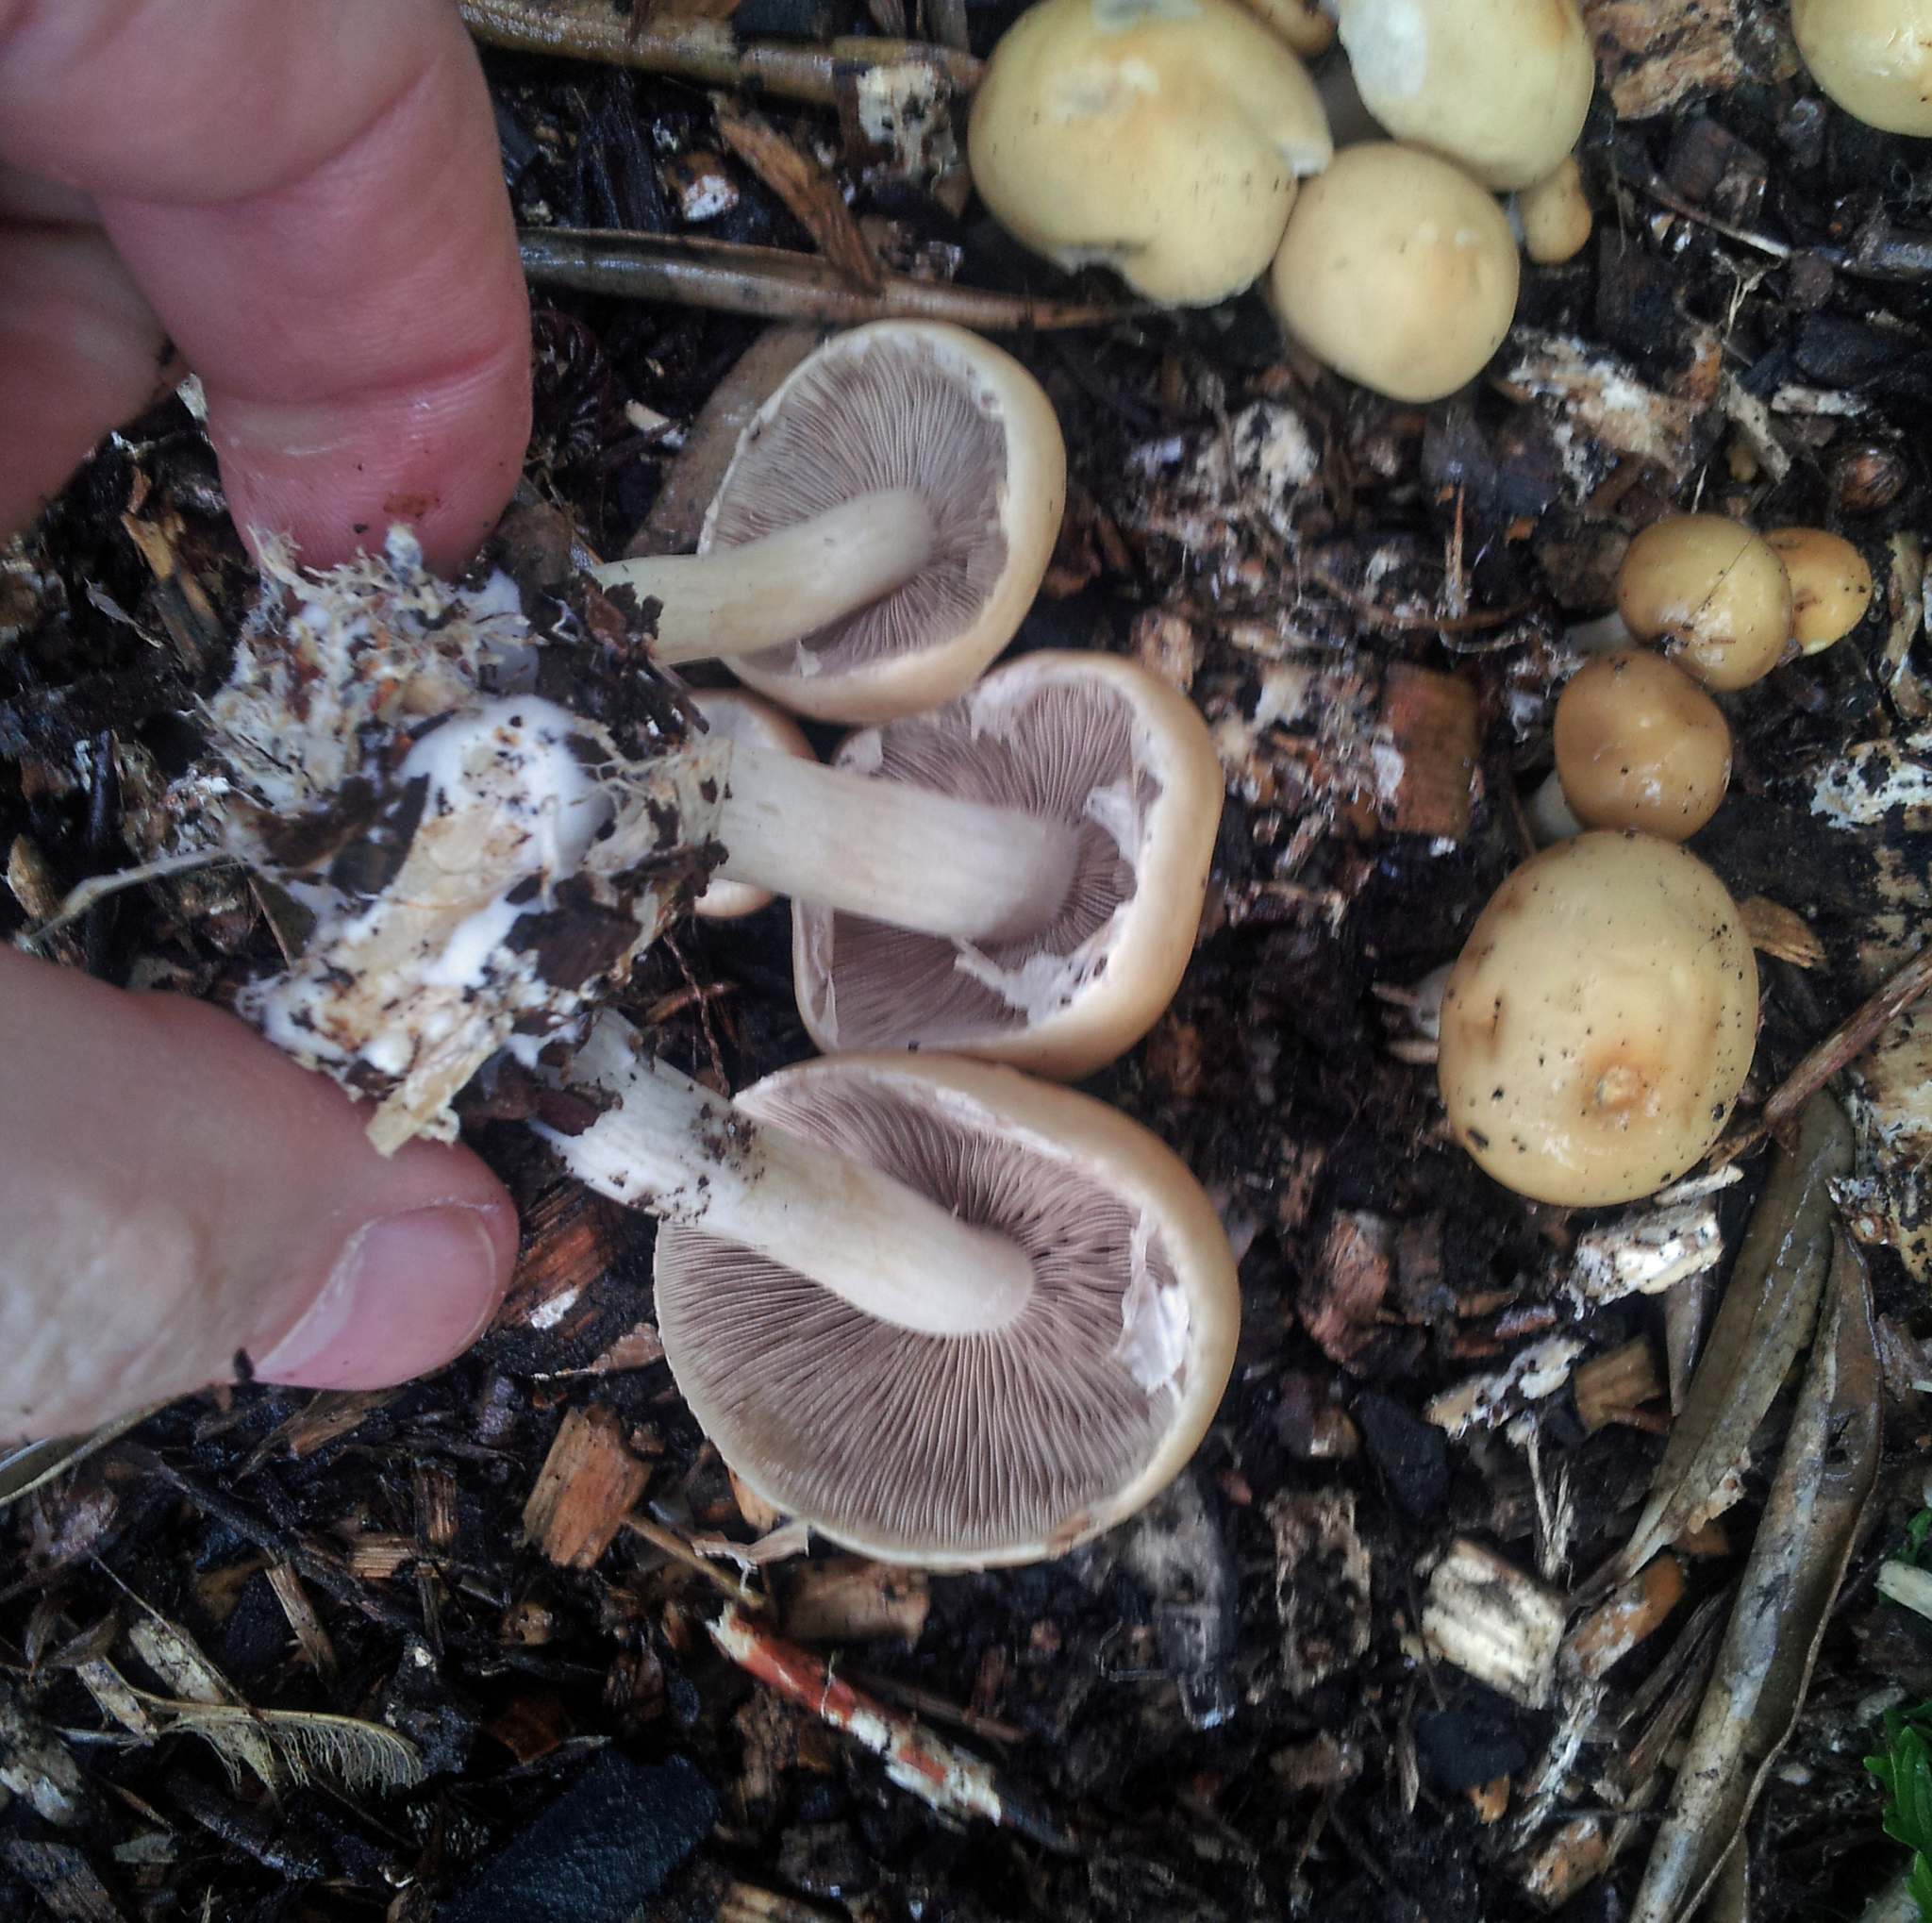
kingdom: Fungi
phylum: Basidiomycota
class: Agaricomycetes
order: Agaricales
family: Psathyrellaceae
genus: Candolleomyces
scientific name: Candolleomyces candolleanus
